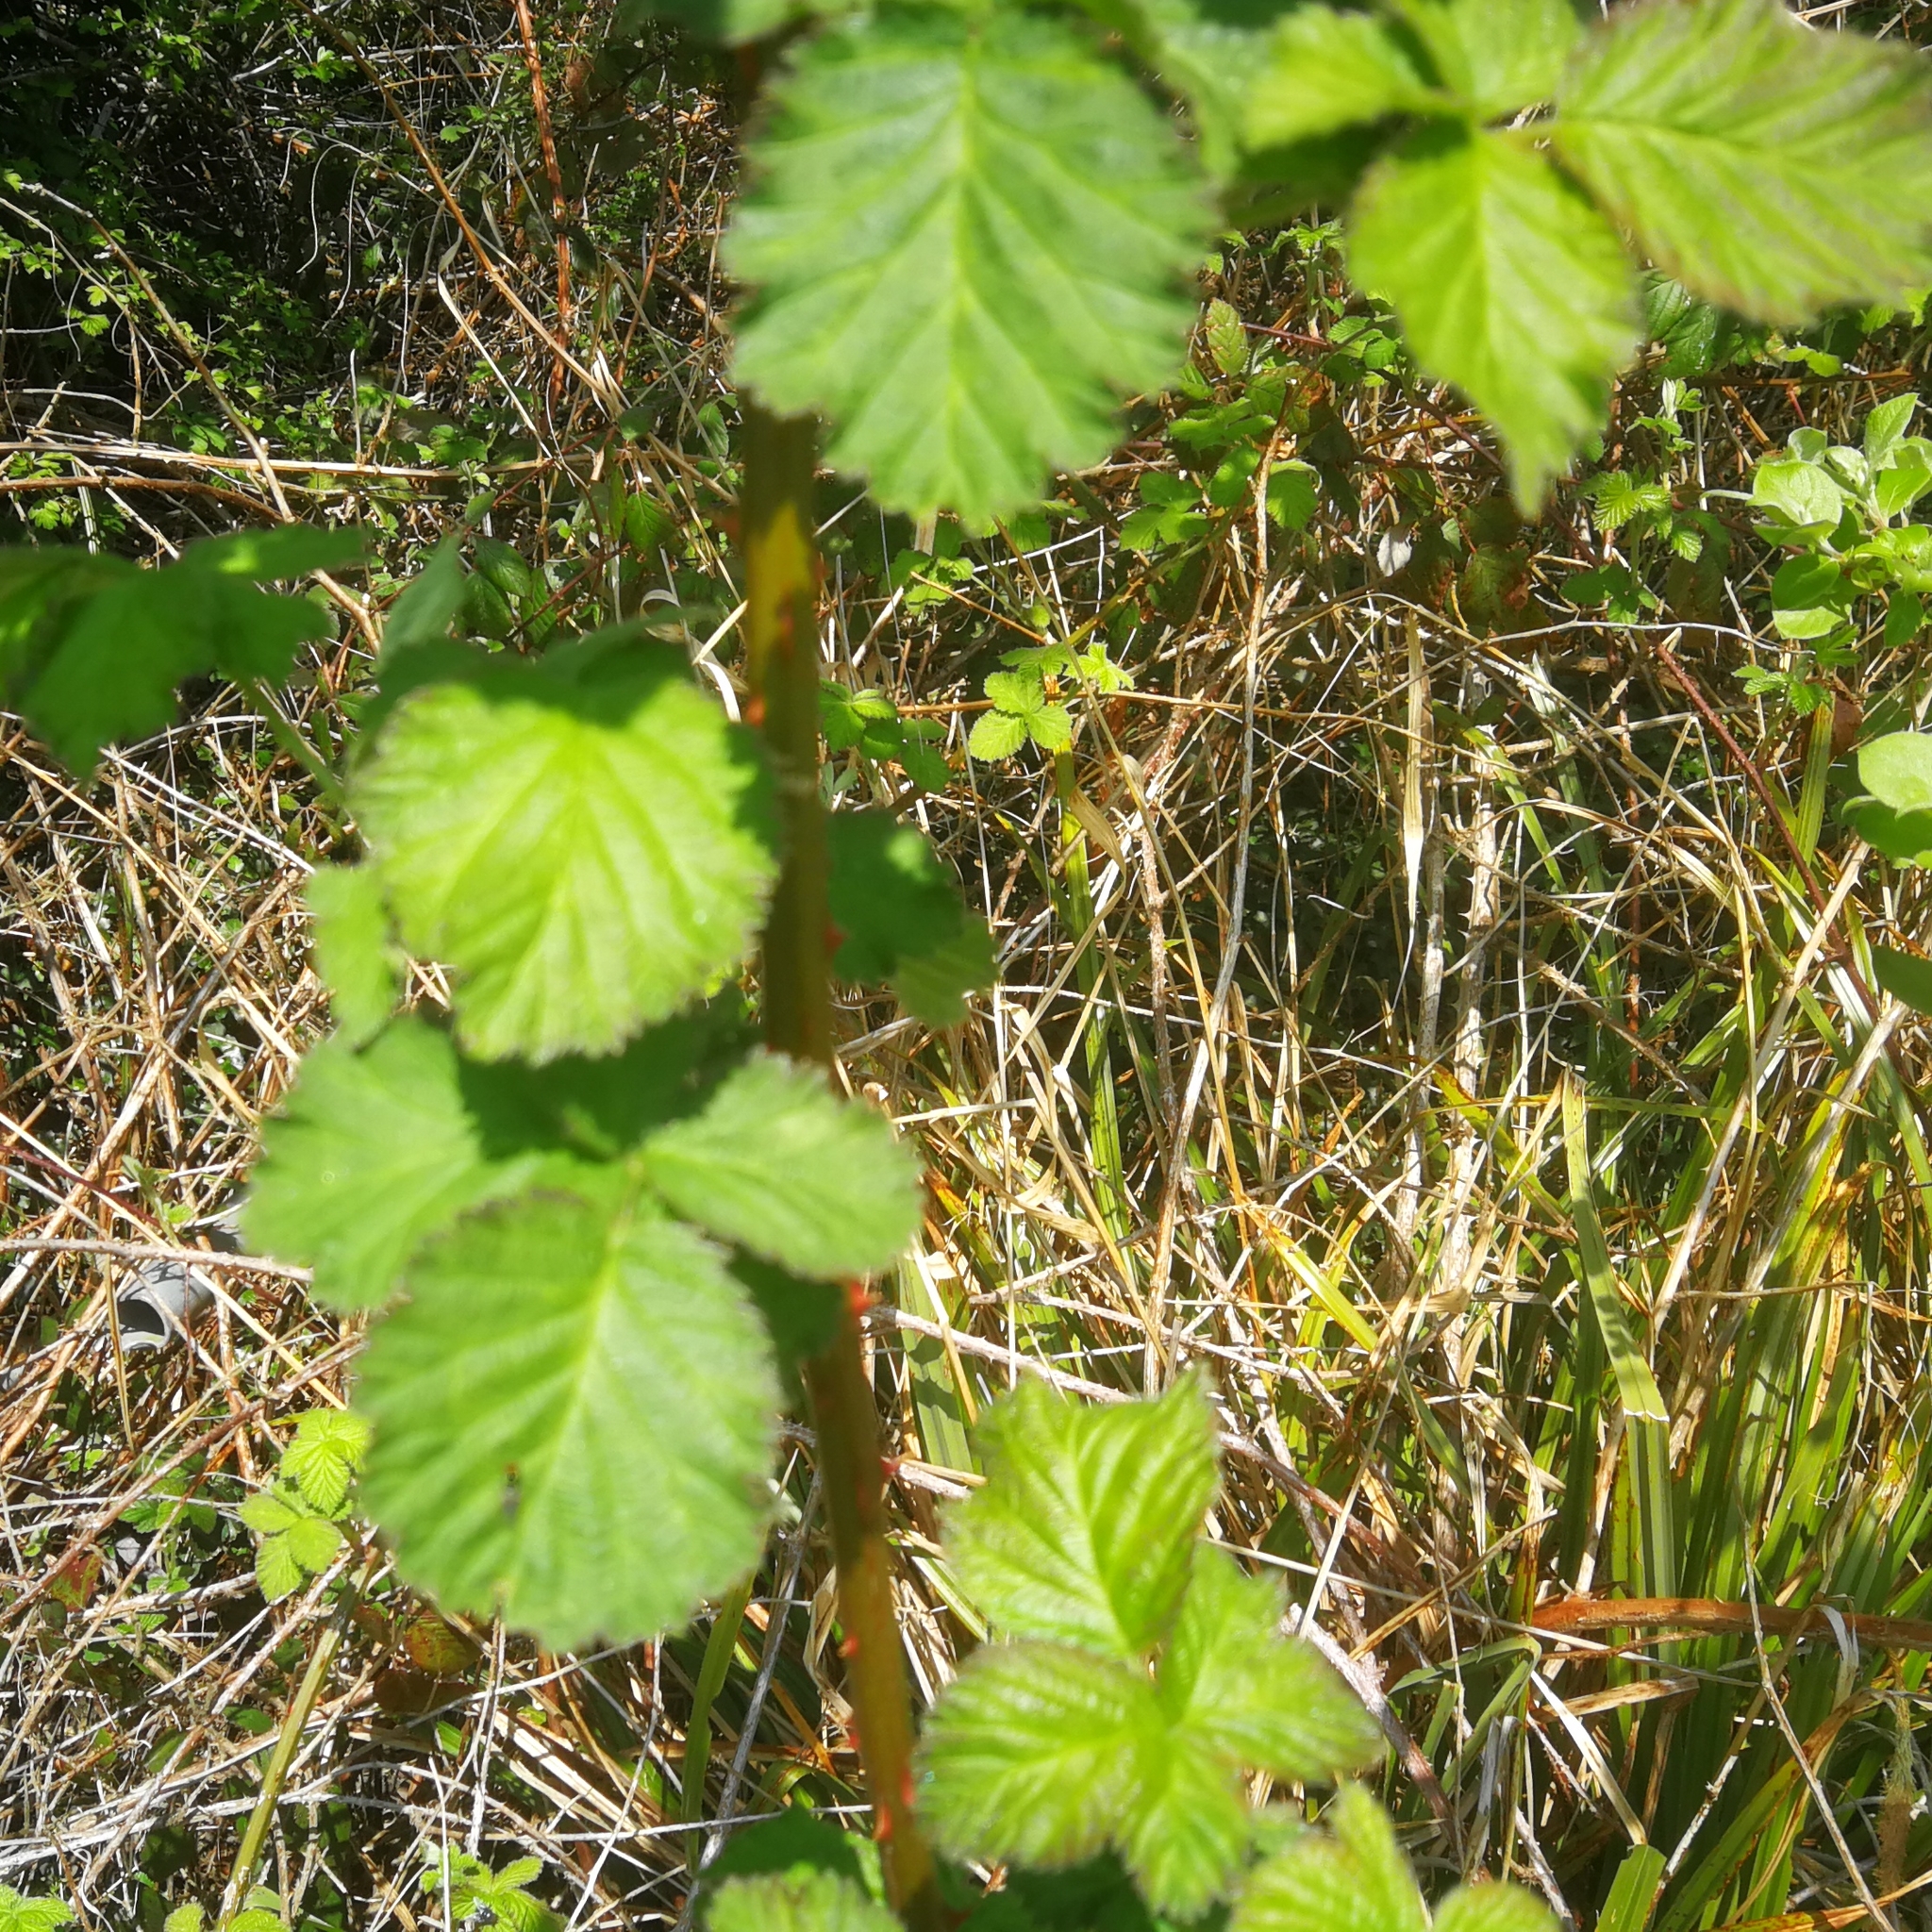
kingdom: Plantae
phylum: Tracheophyta
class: Magnoliopsida
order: Rosales
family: Rosaceae
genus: Rubus
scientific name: Rubus fruticosus
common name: Blackberry, bramble
